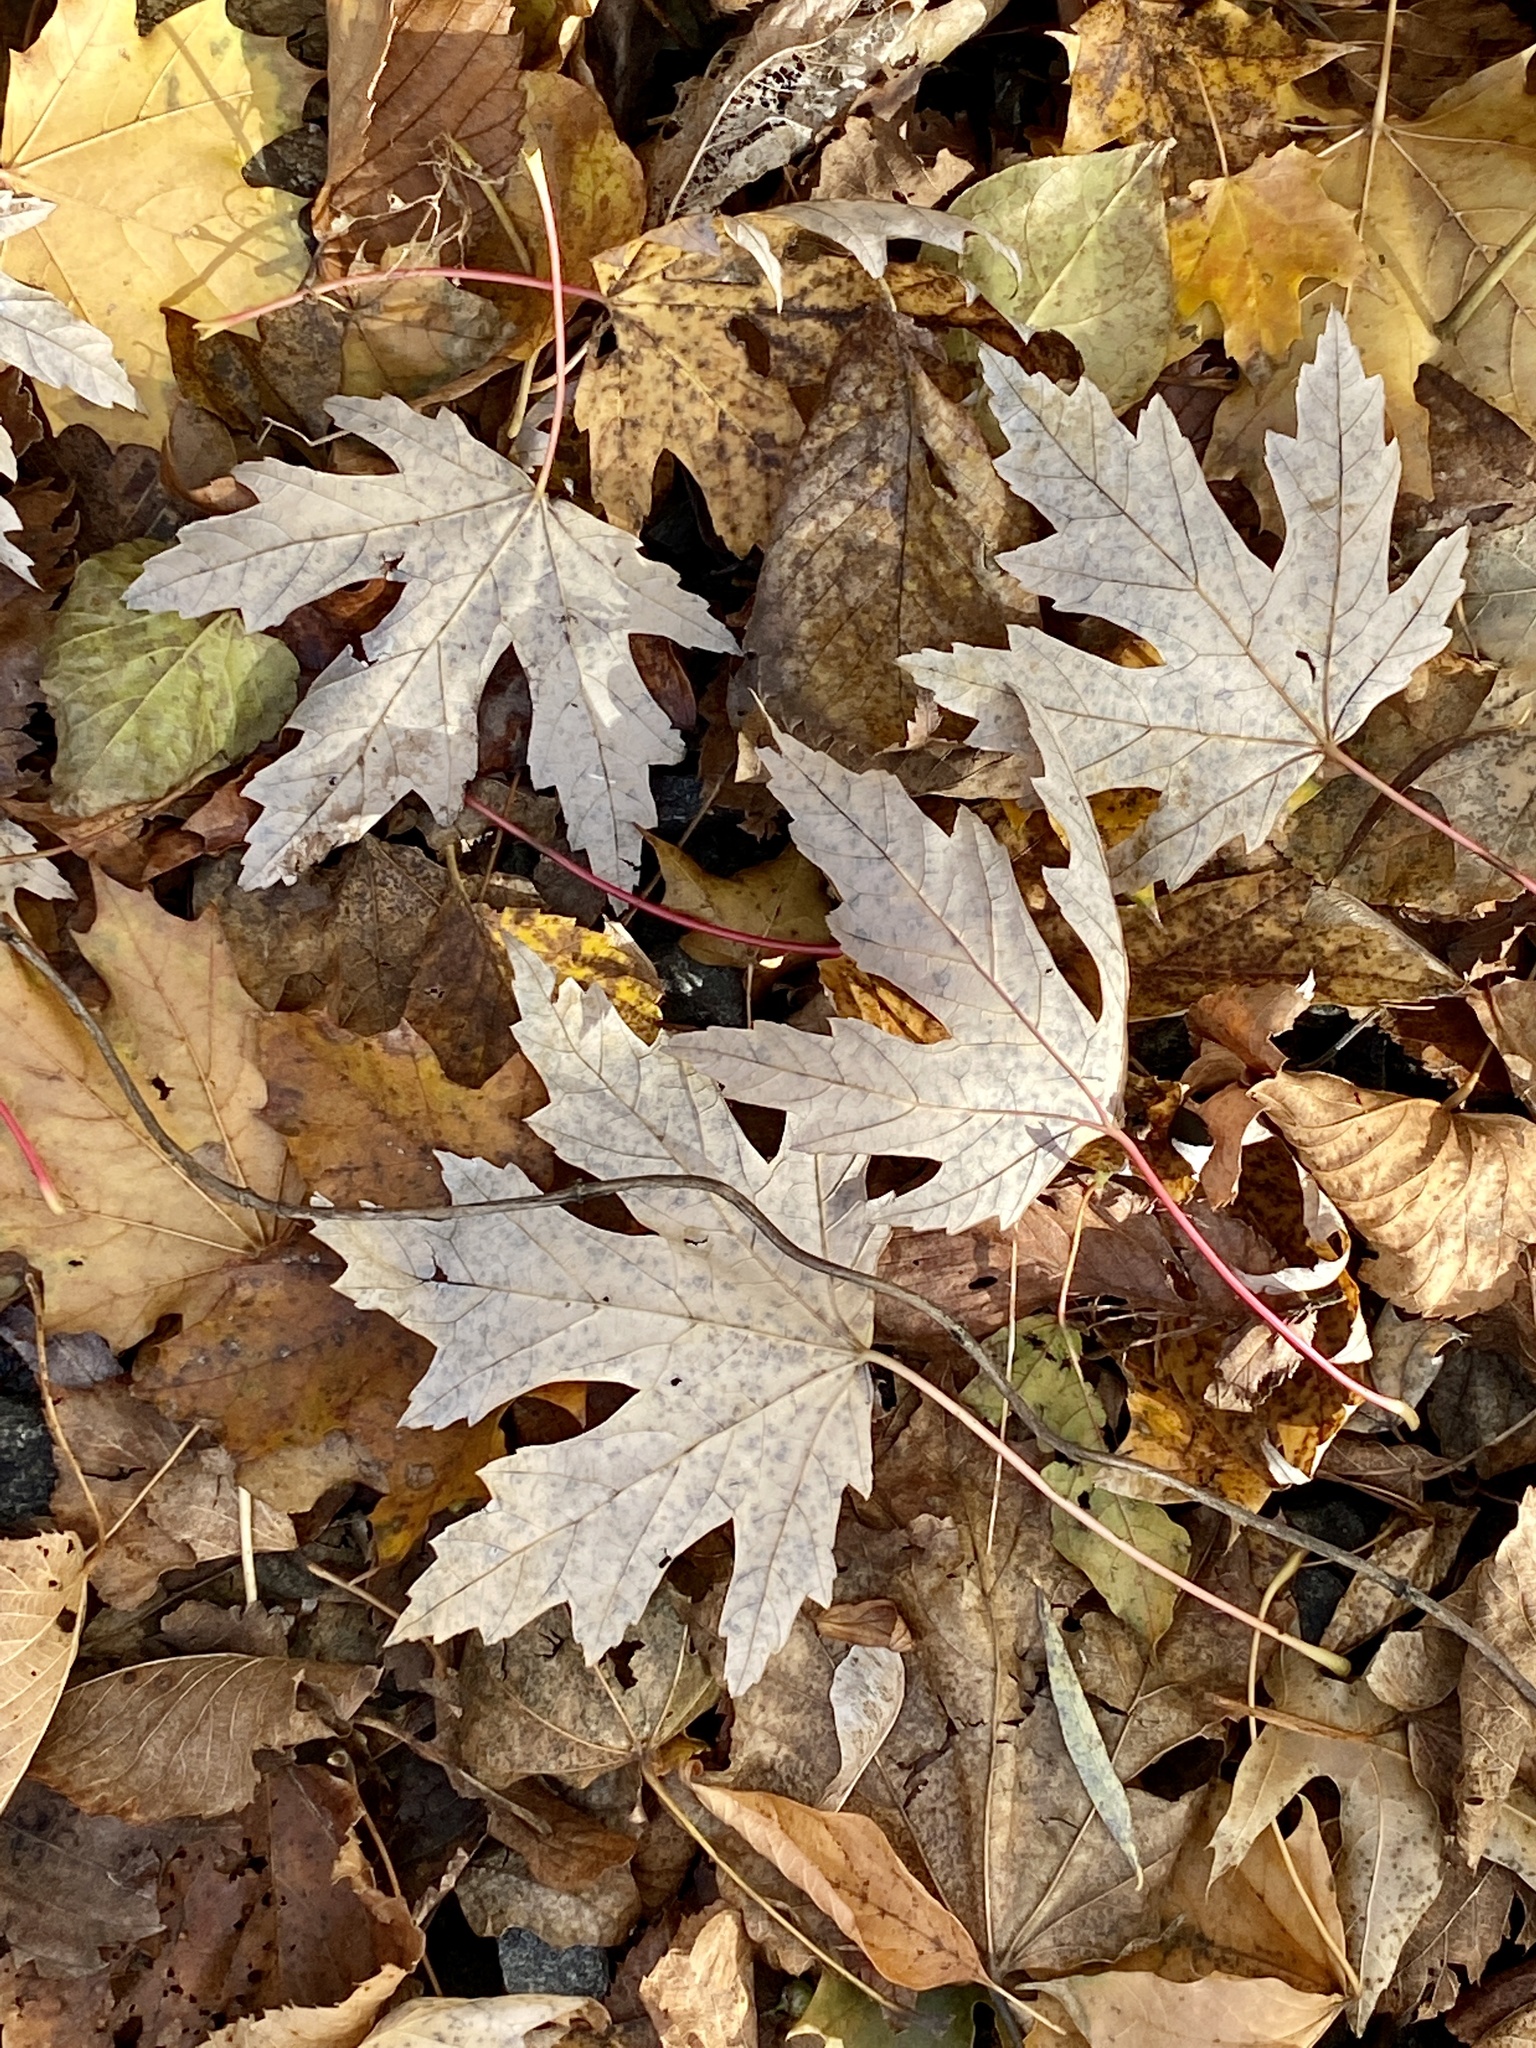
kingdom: Plantae
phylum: Tracheophyta
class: Magnoliopsida
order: Sapindales
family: Sapindaceae
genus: Acer
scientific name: Acer saccharinum
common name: Silver maple
